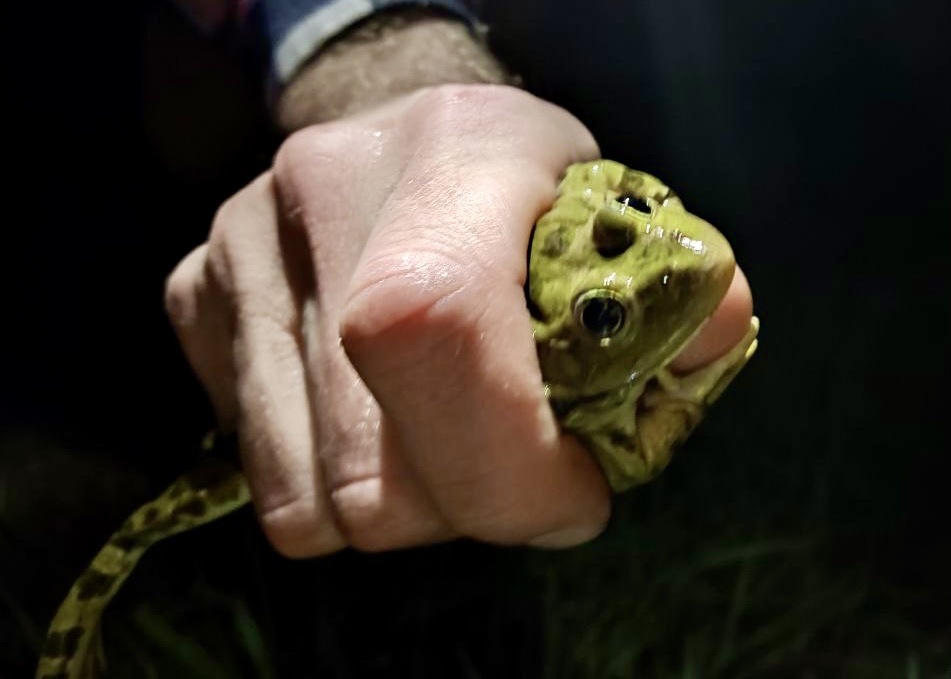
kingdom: Animalia
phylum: Chordata
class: Amphibia
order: Anura
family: Ranidae
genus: Pelophylax
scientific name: Pelophylax ridibundus
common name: Marsh frog
